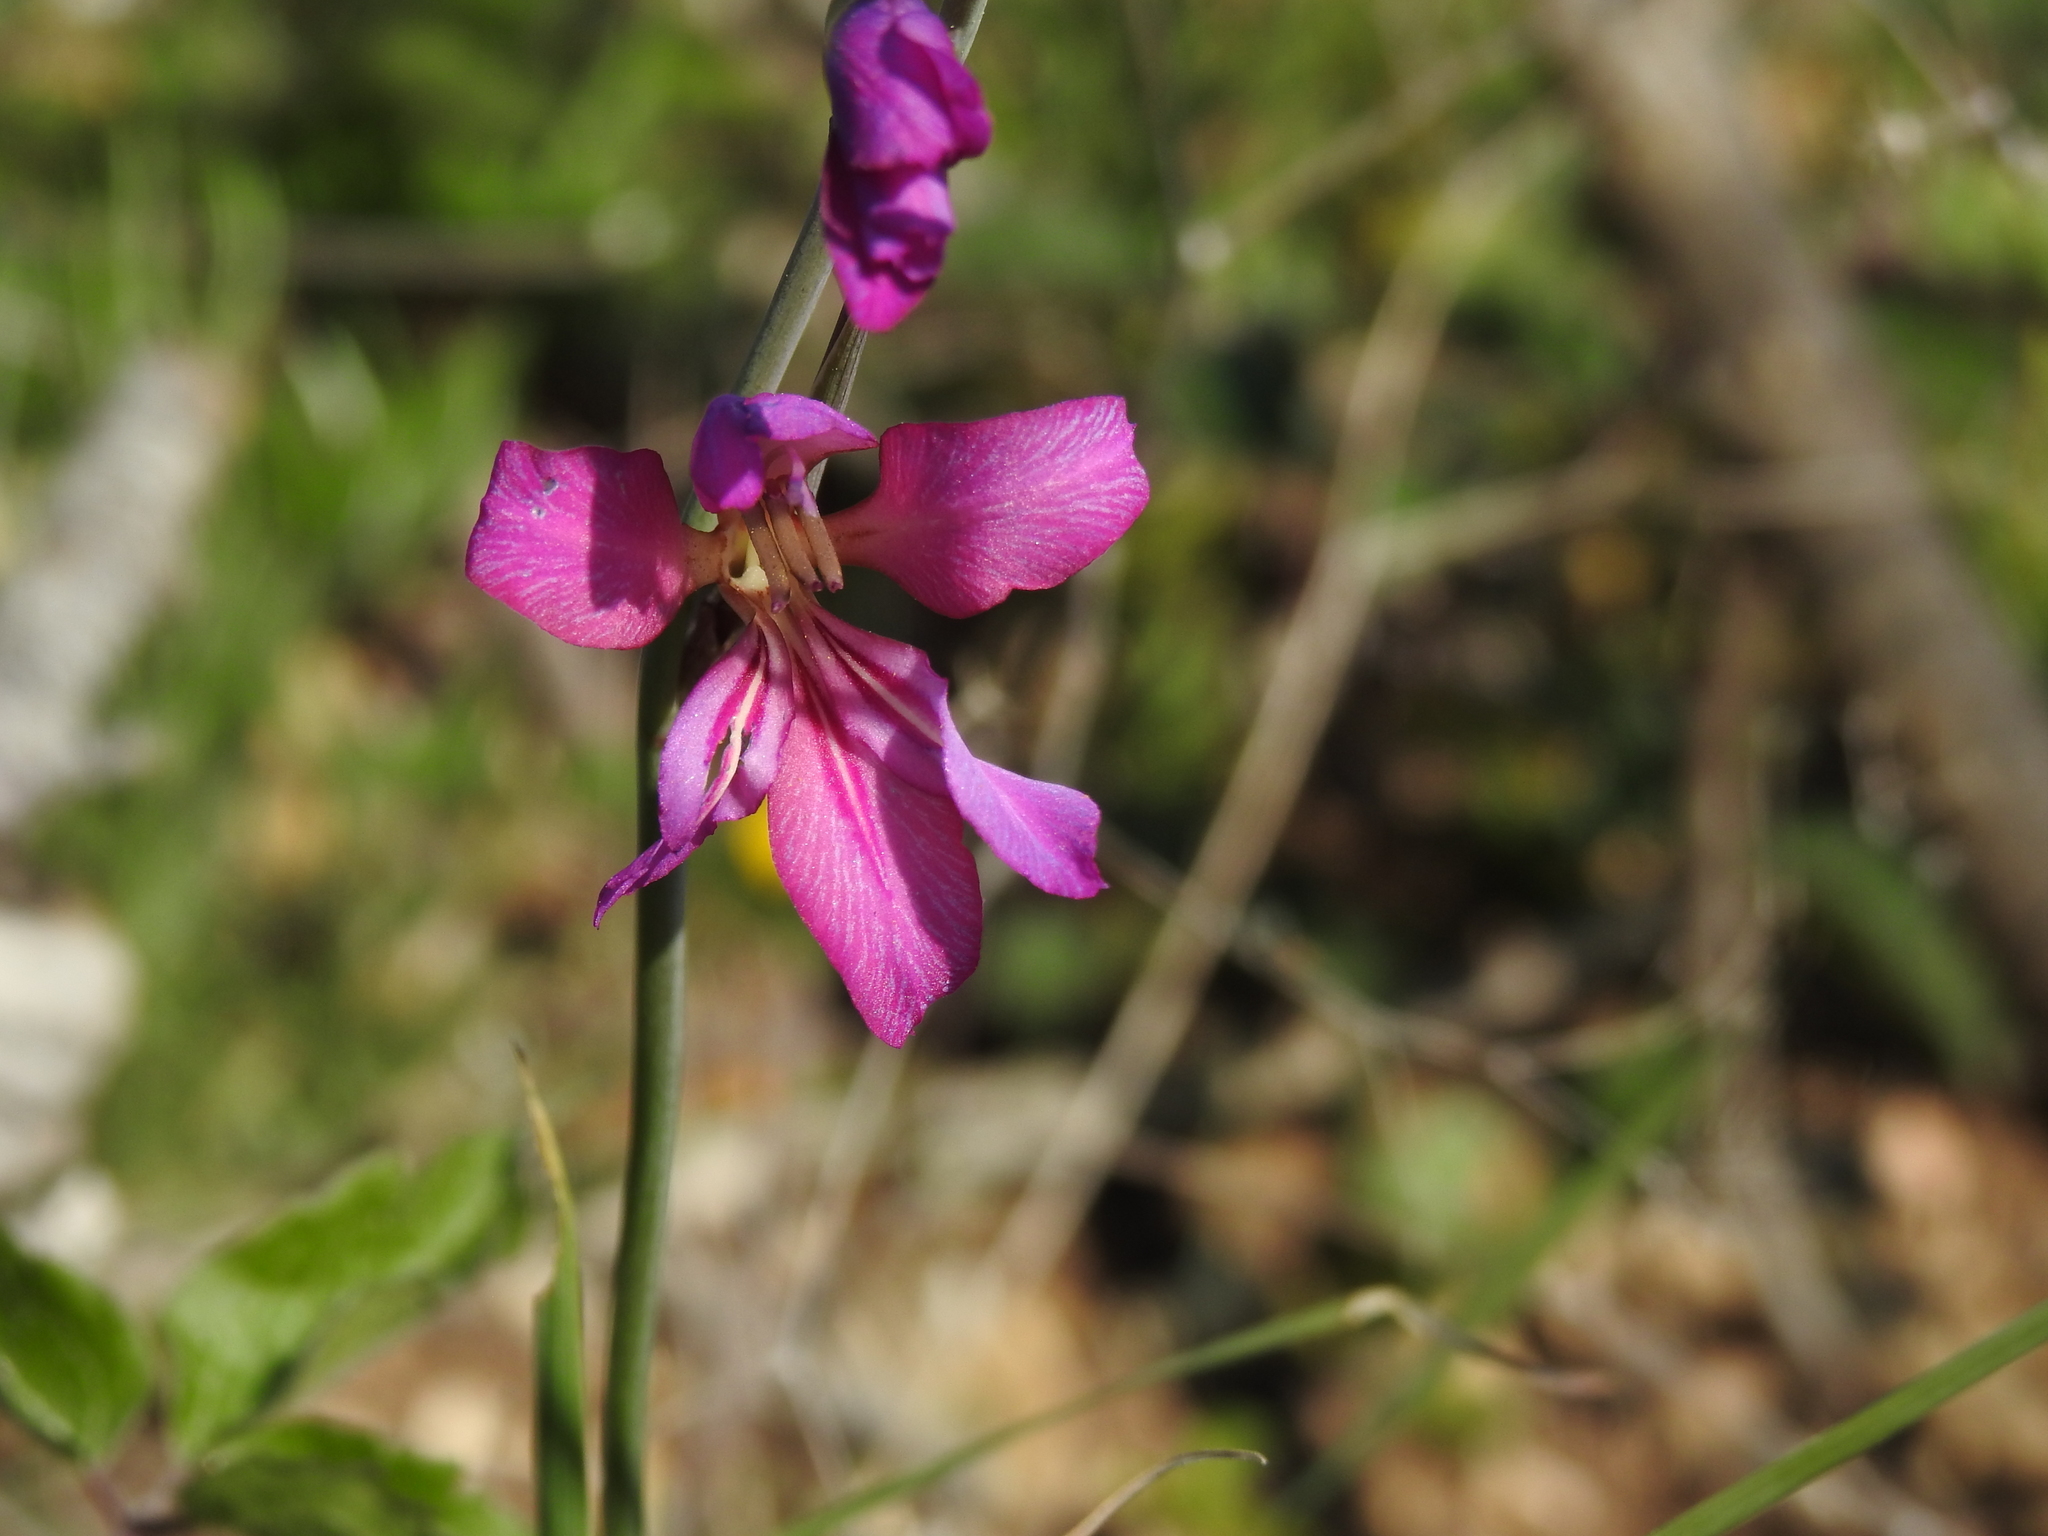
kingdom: Plantae
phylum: Tracheophyta
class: Liliopsida
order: Asparagales
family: Iridaceae
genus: Gladiolus
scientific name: Gladiolus dubius
